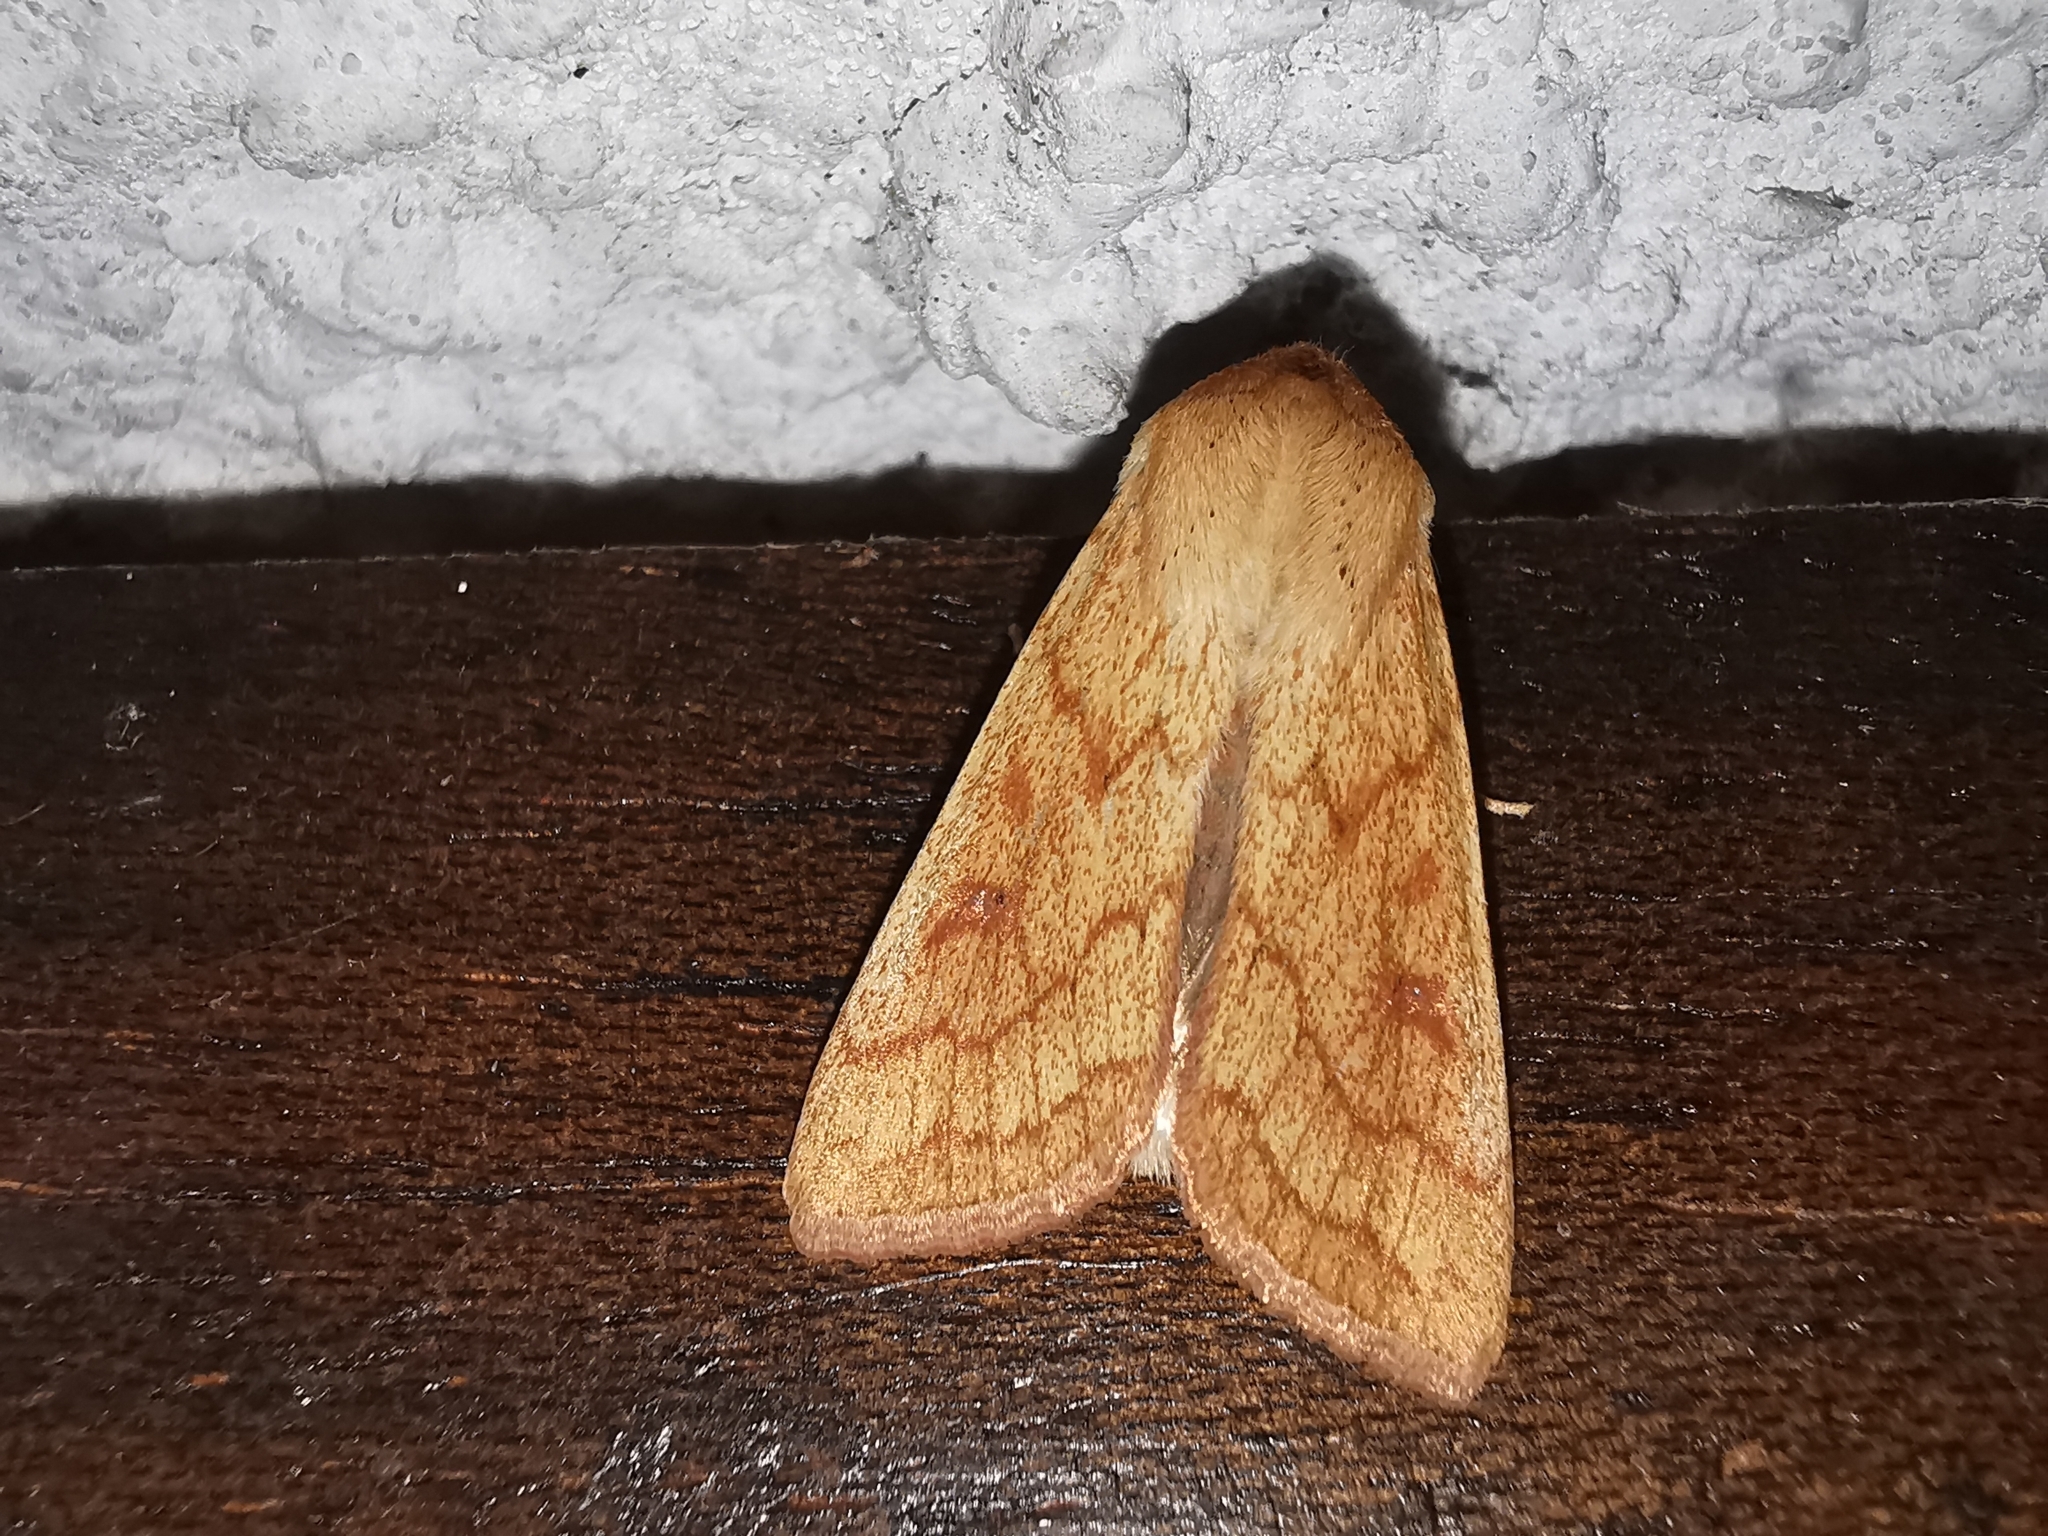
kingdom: Animalia
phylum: Arthropoda
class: Insecta
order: Lepidoptera
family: Noctuidae
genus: Mythimna
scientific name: Mythimna vitellina
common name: Delicate
